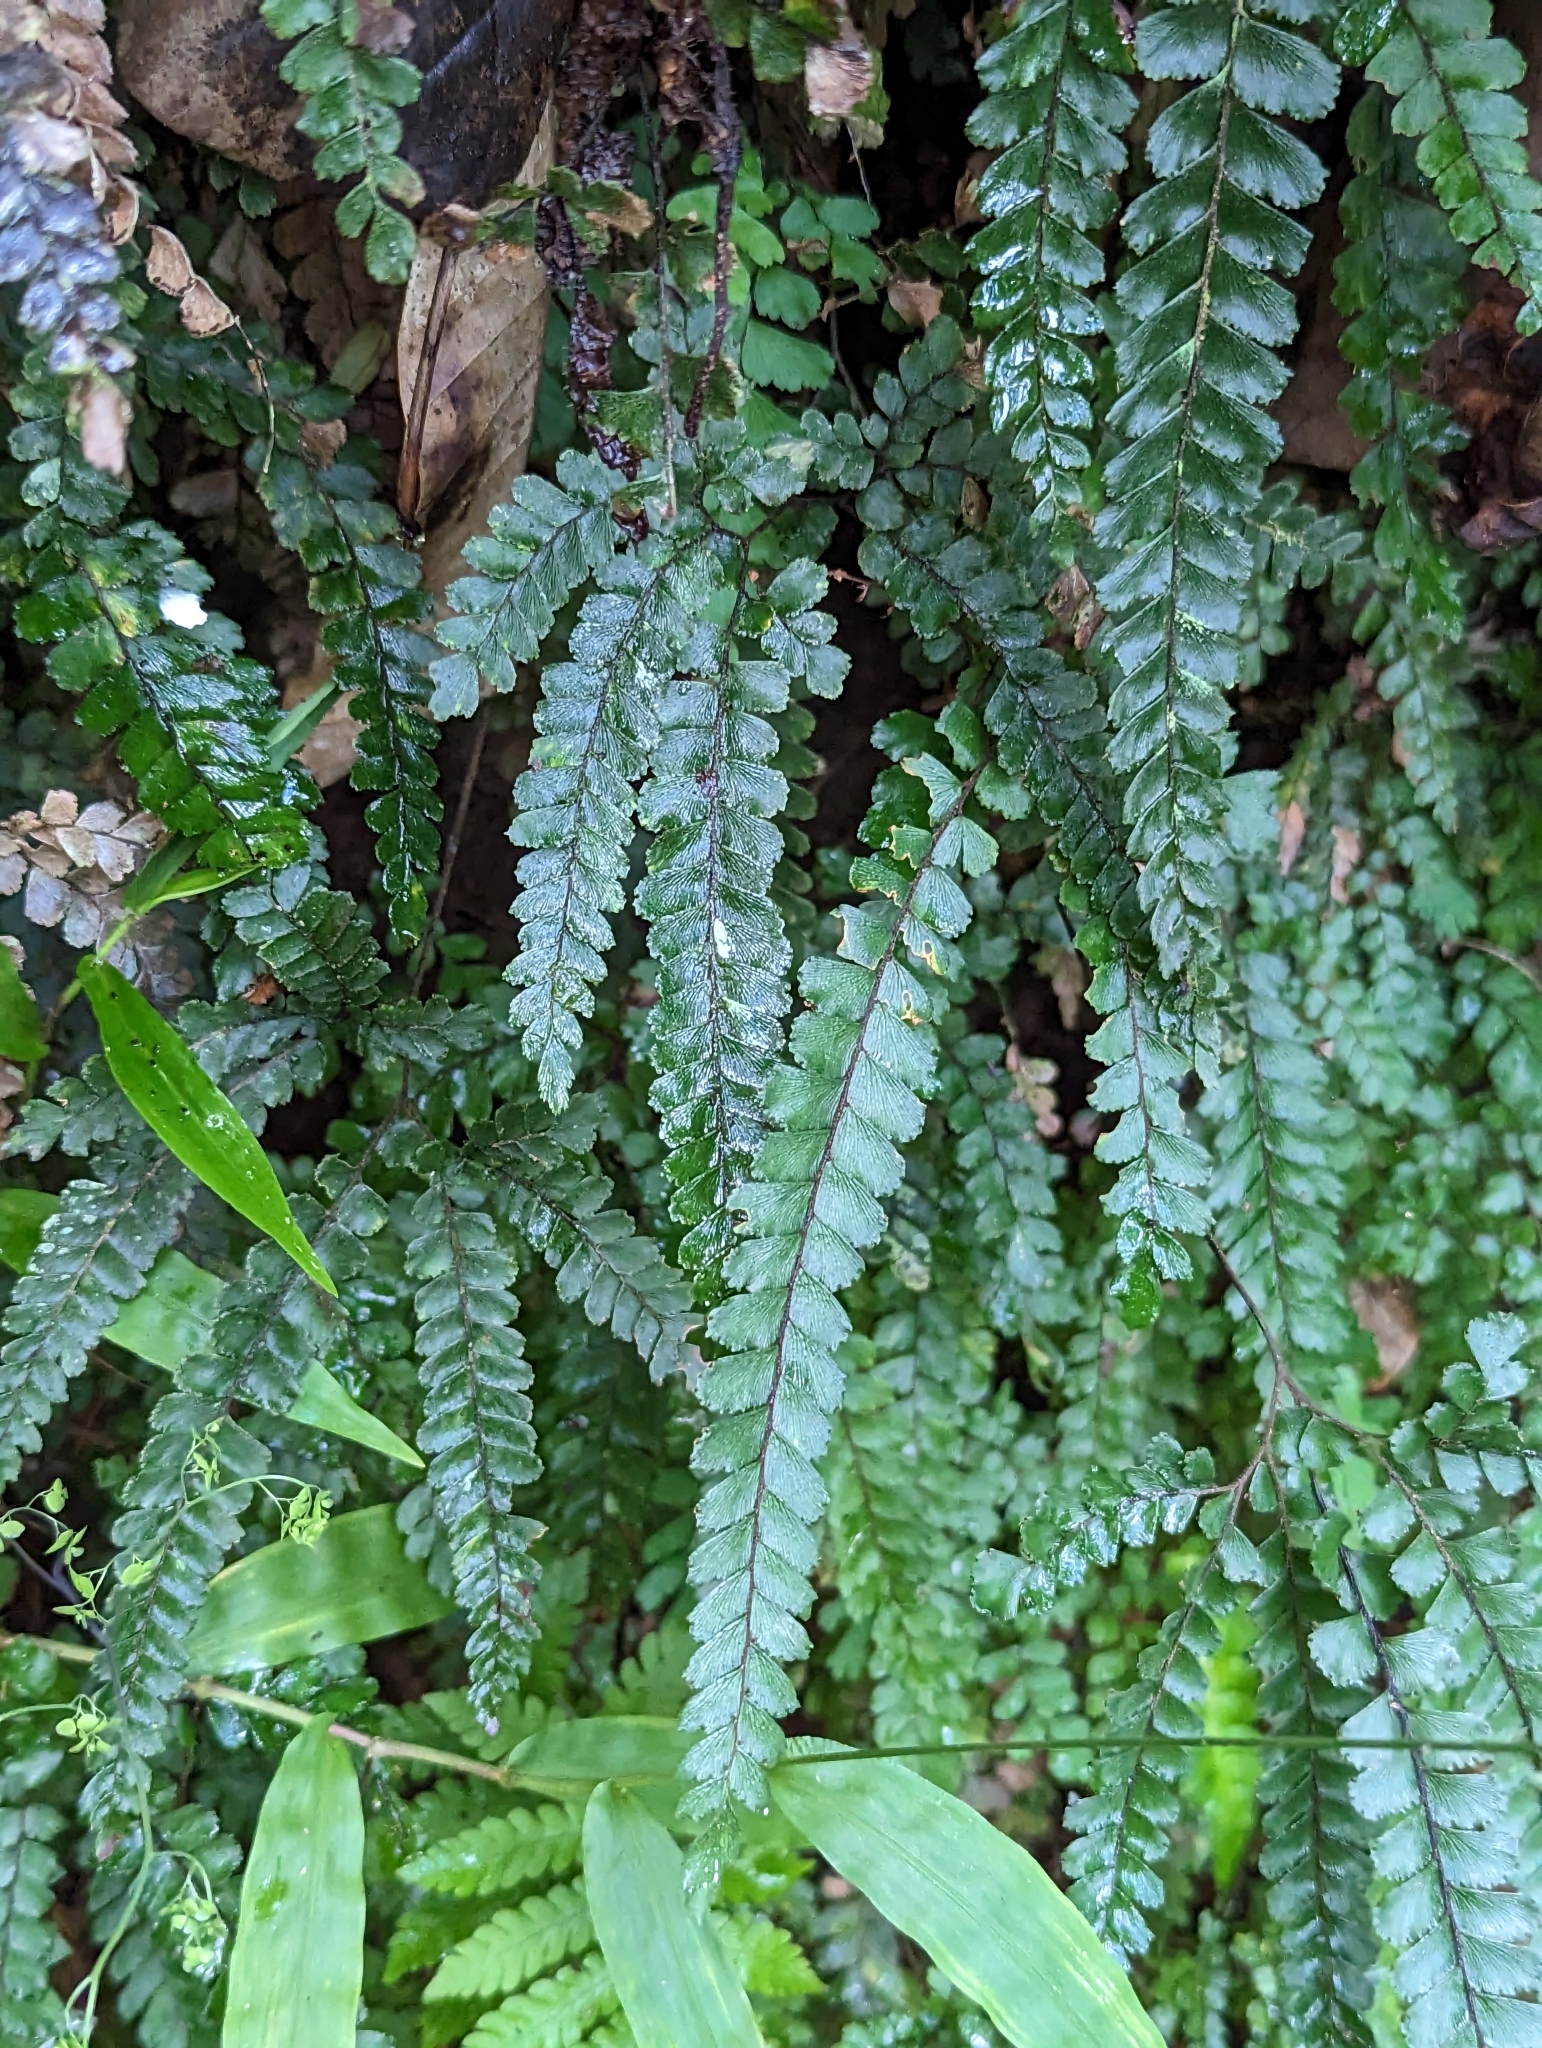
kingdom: Plantae
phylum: Tracheophyta
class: Polypodiopsida
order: Polypodiales
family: Pteridaceae
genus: Adiantum
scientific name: Adiantum hispidulum
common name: Rough maidenhair
